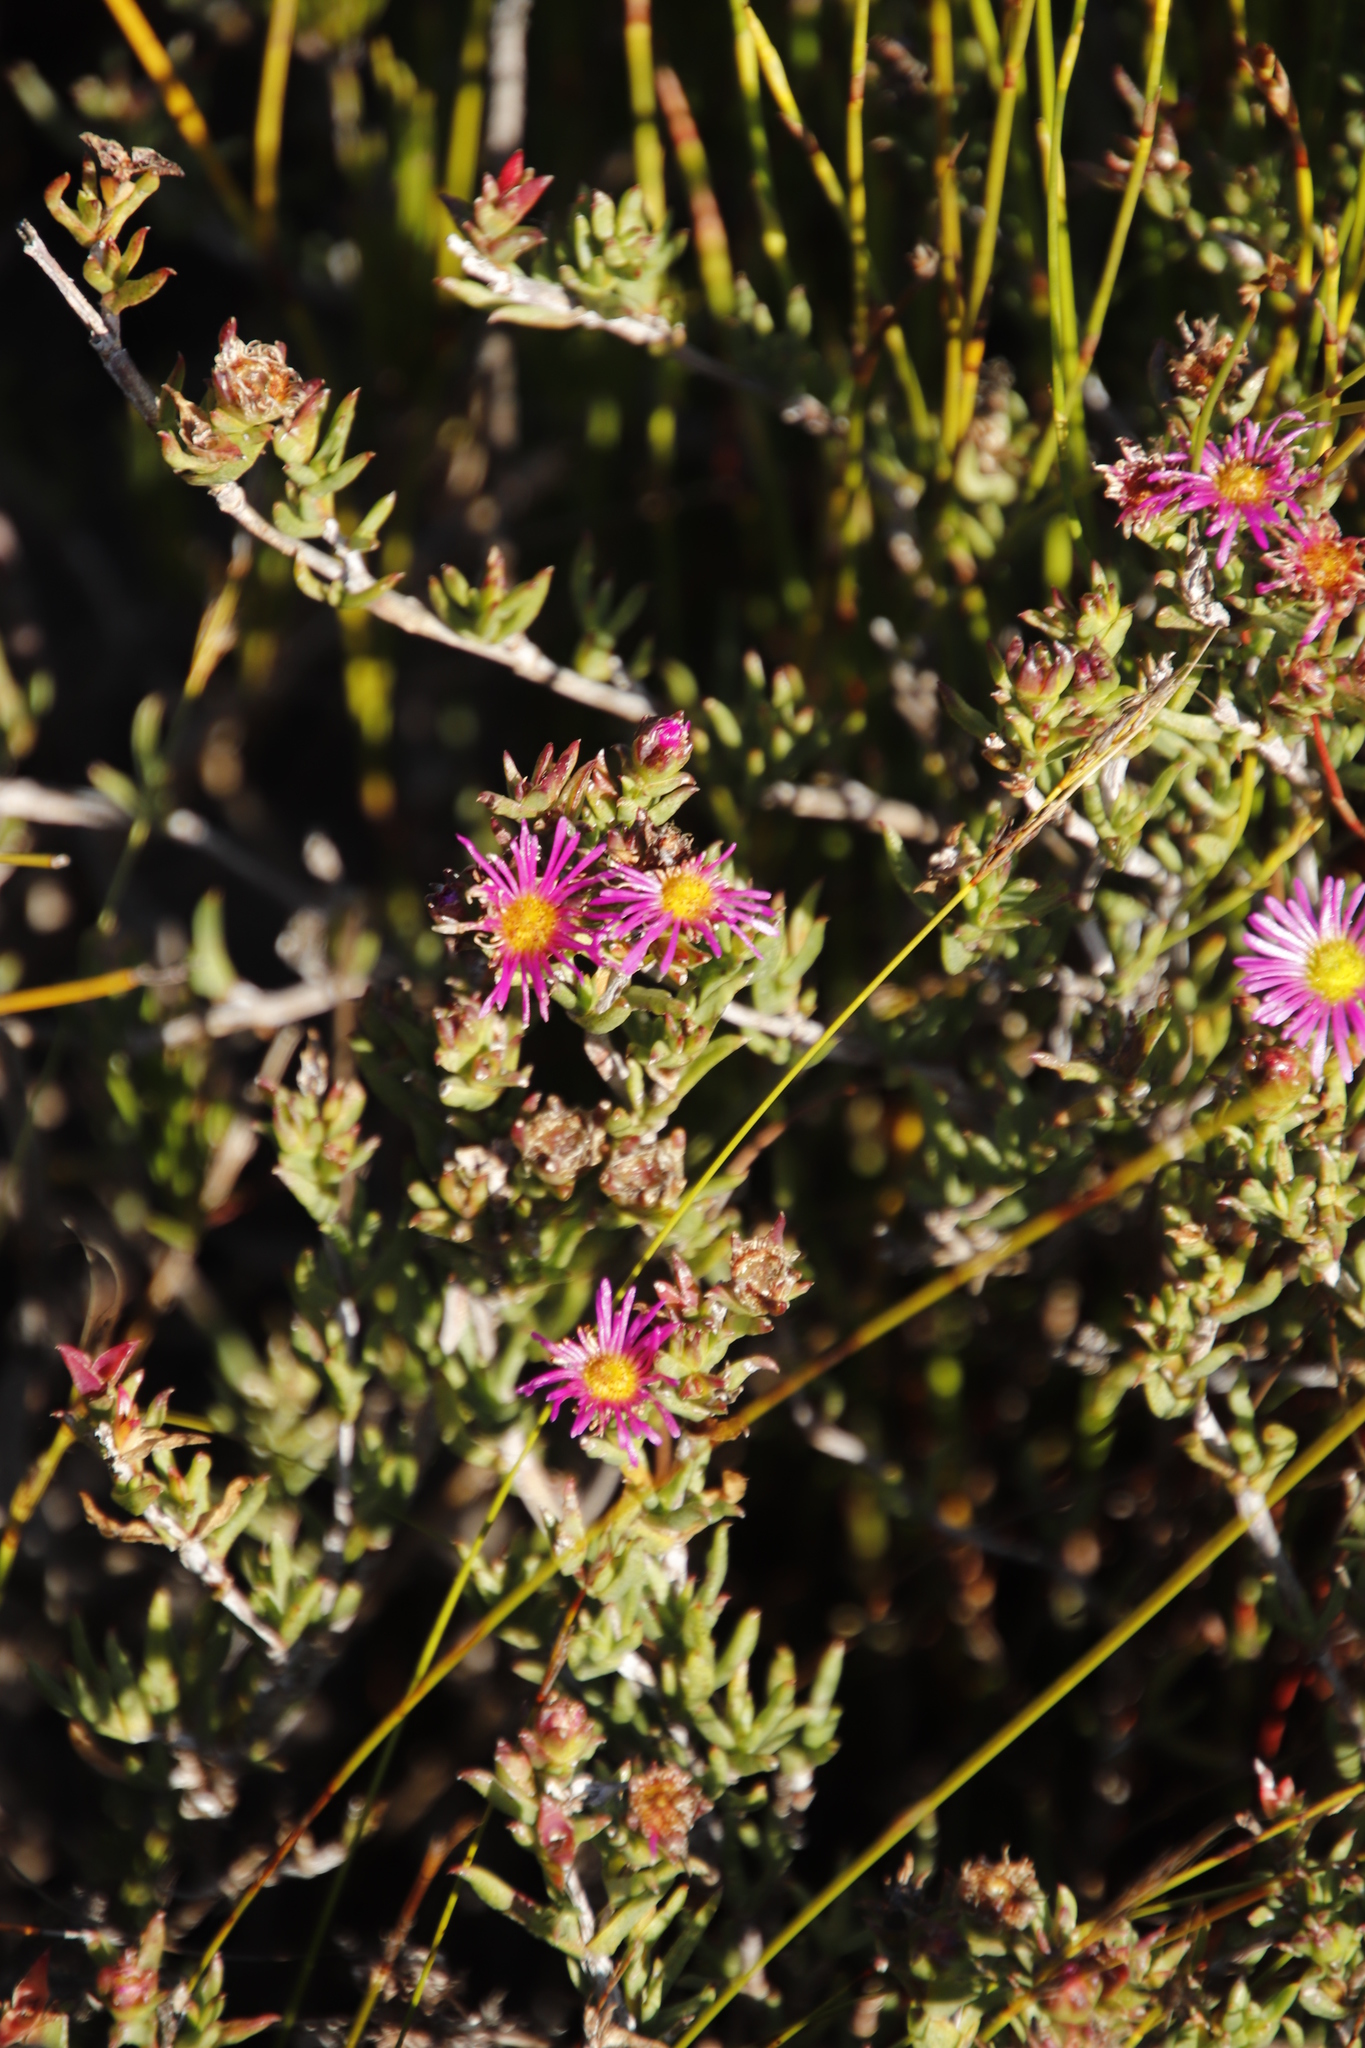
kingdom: Plantae
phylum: Tracheophyta
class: Magnoliopsida
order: Caryophyllales
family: Aizoaceae
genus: Erepsia
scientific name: Erepsia anceps
